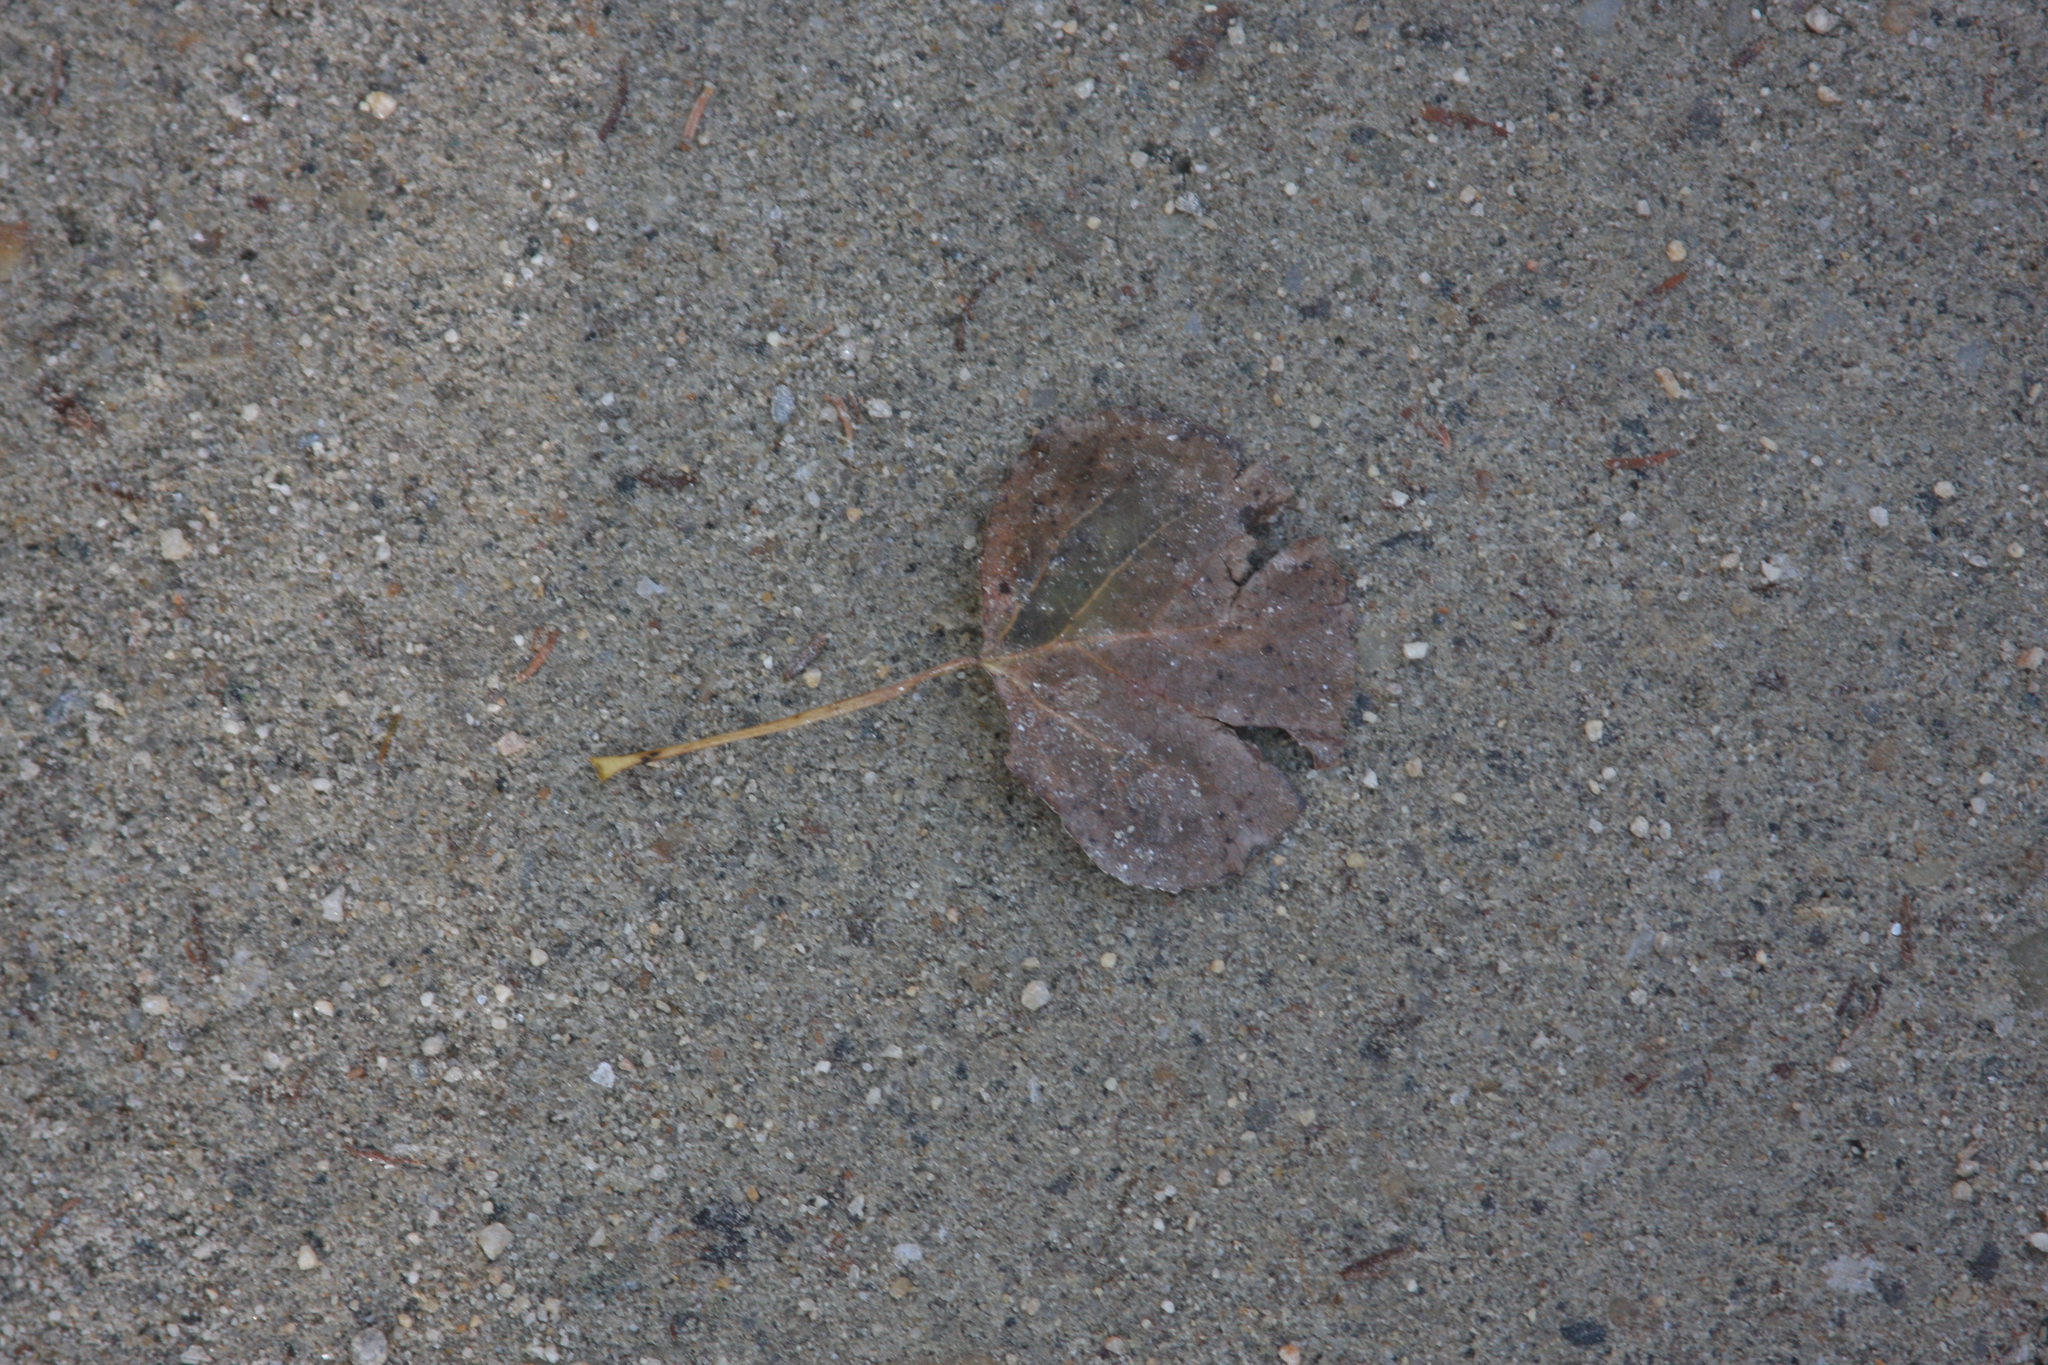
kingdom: Plantae
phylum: Tracheophyta
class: Magnoliopsida
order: Malpighiales
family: Salicaceae
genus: Populus
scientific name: Populus tremuloides
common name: Quaking aspen
